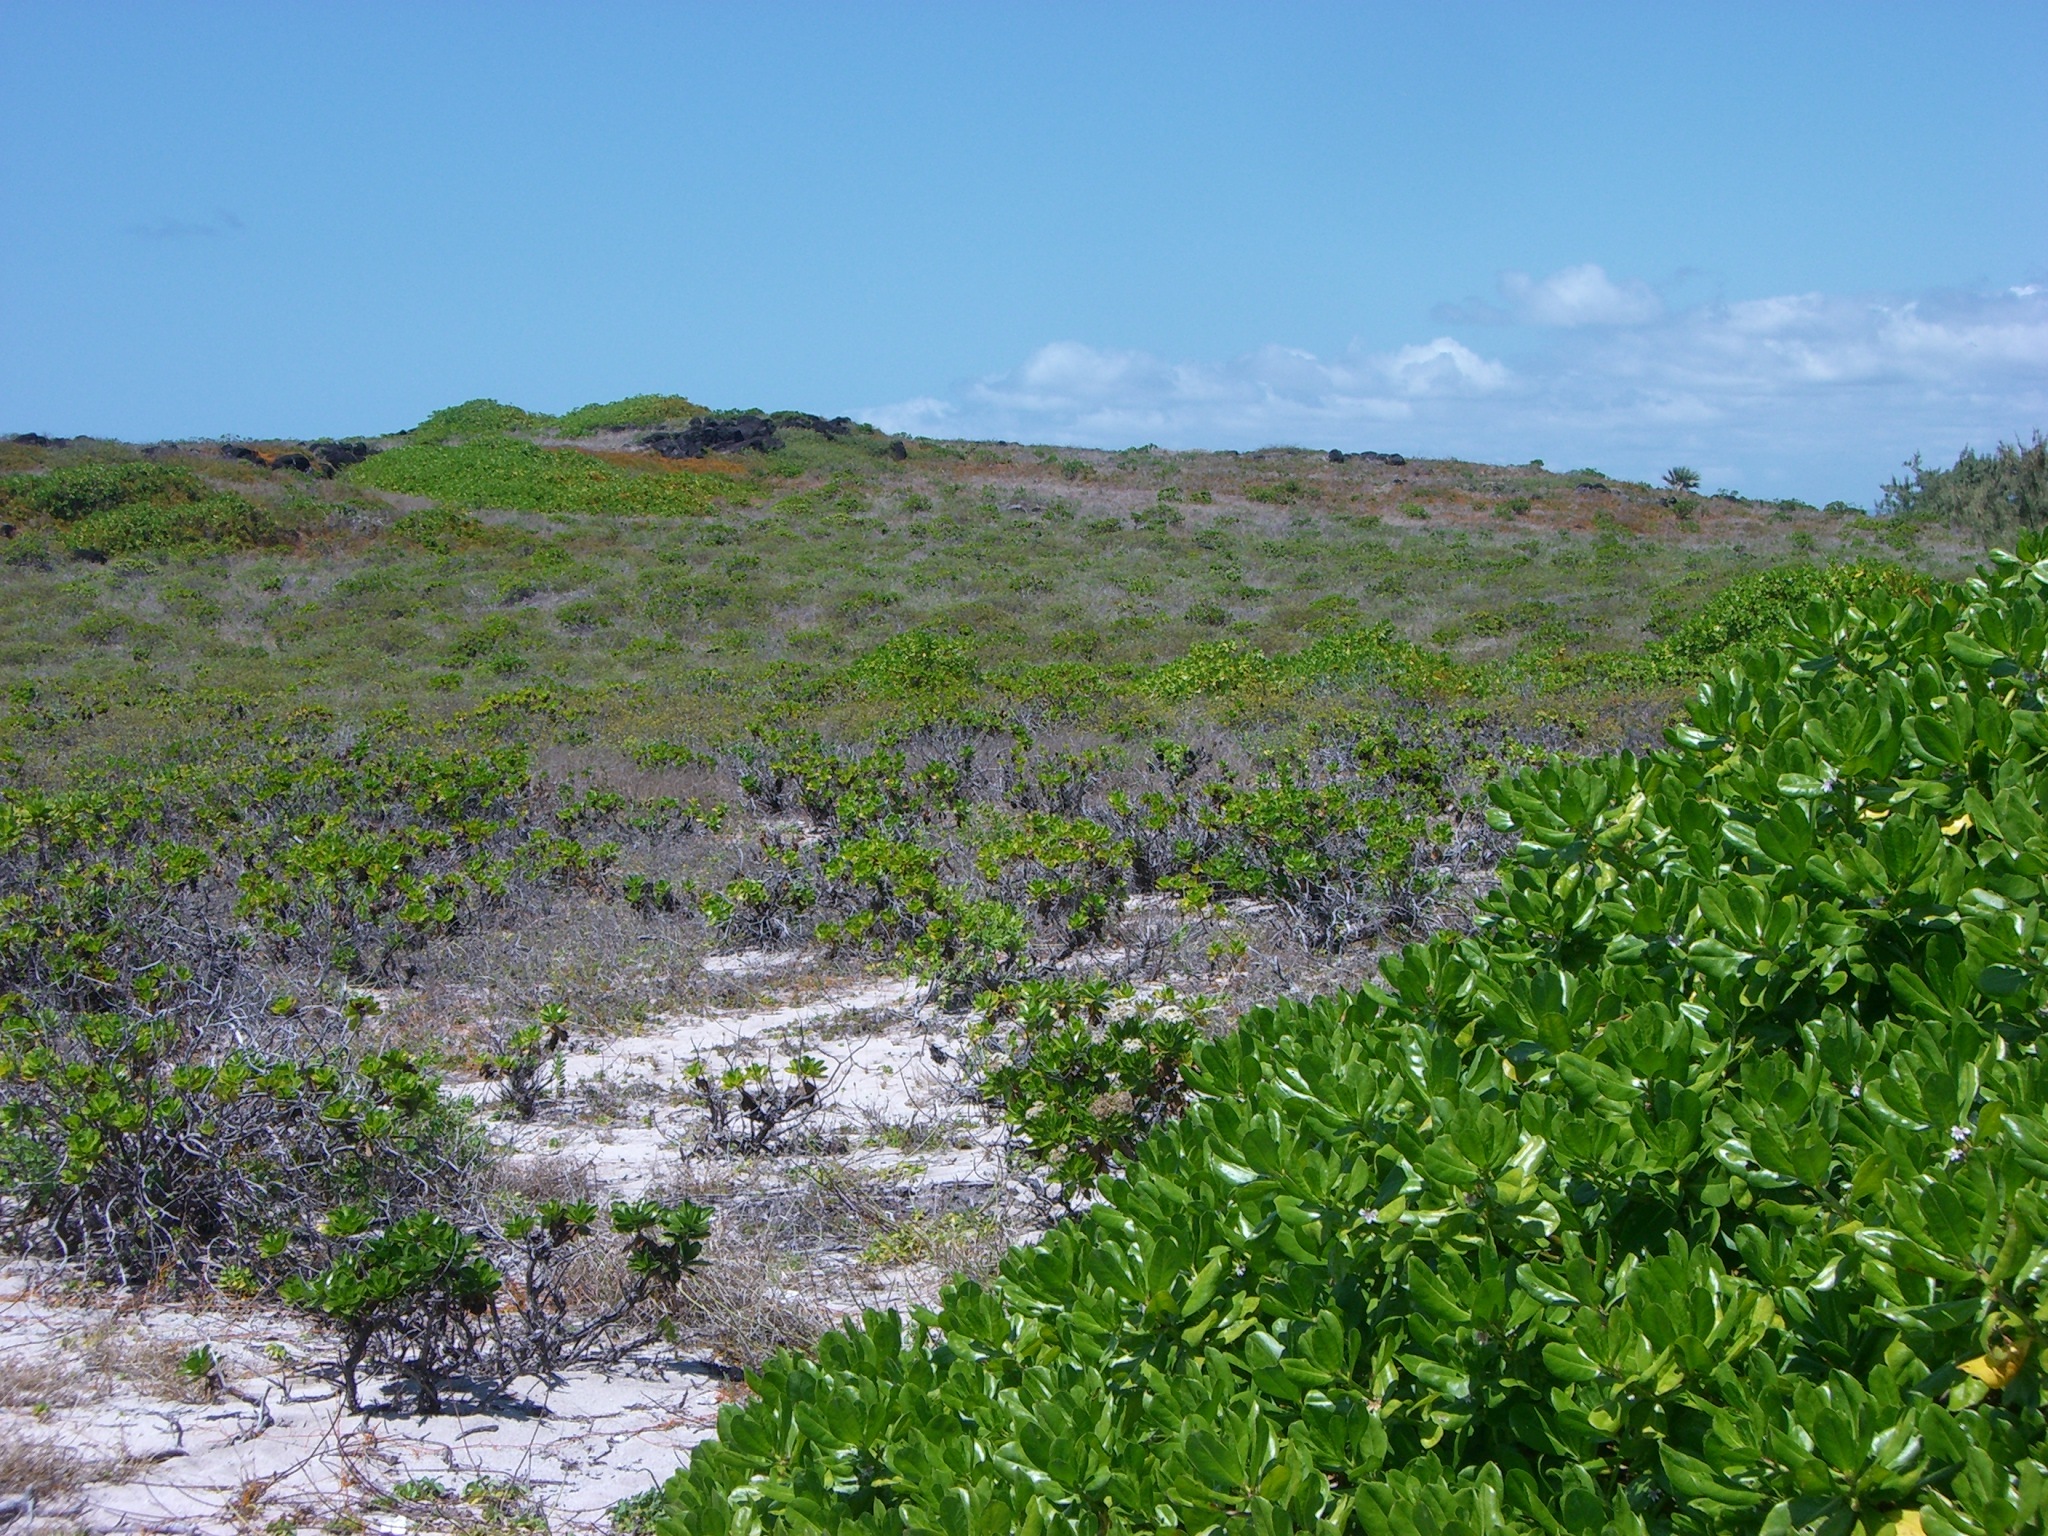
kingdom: Plantae
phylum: Tracheophyta
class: Magnoliopsida
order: Asterales
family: Goodeniaceae
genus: Scaevola
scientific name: Scaevola taccada
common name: Sea lettucetree
